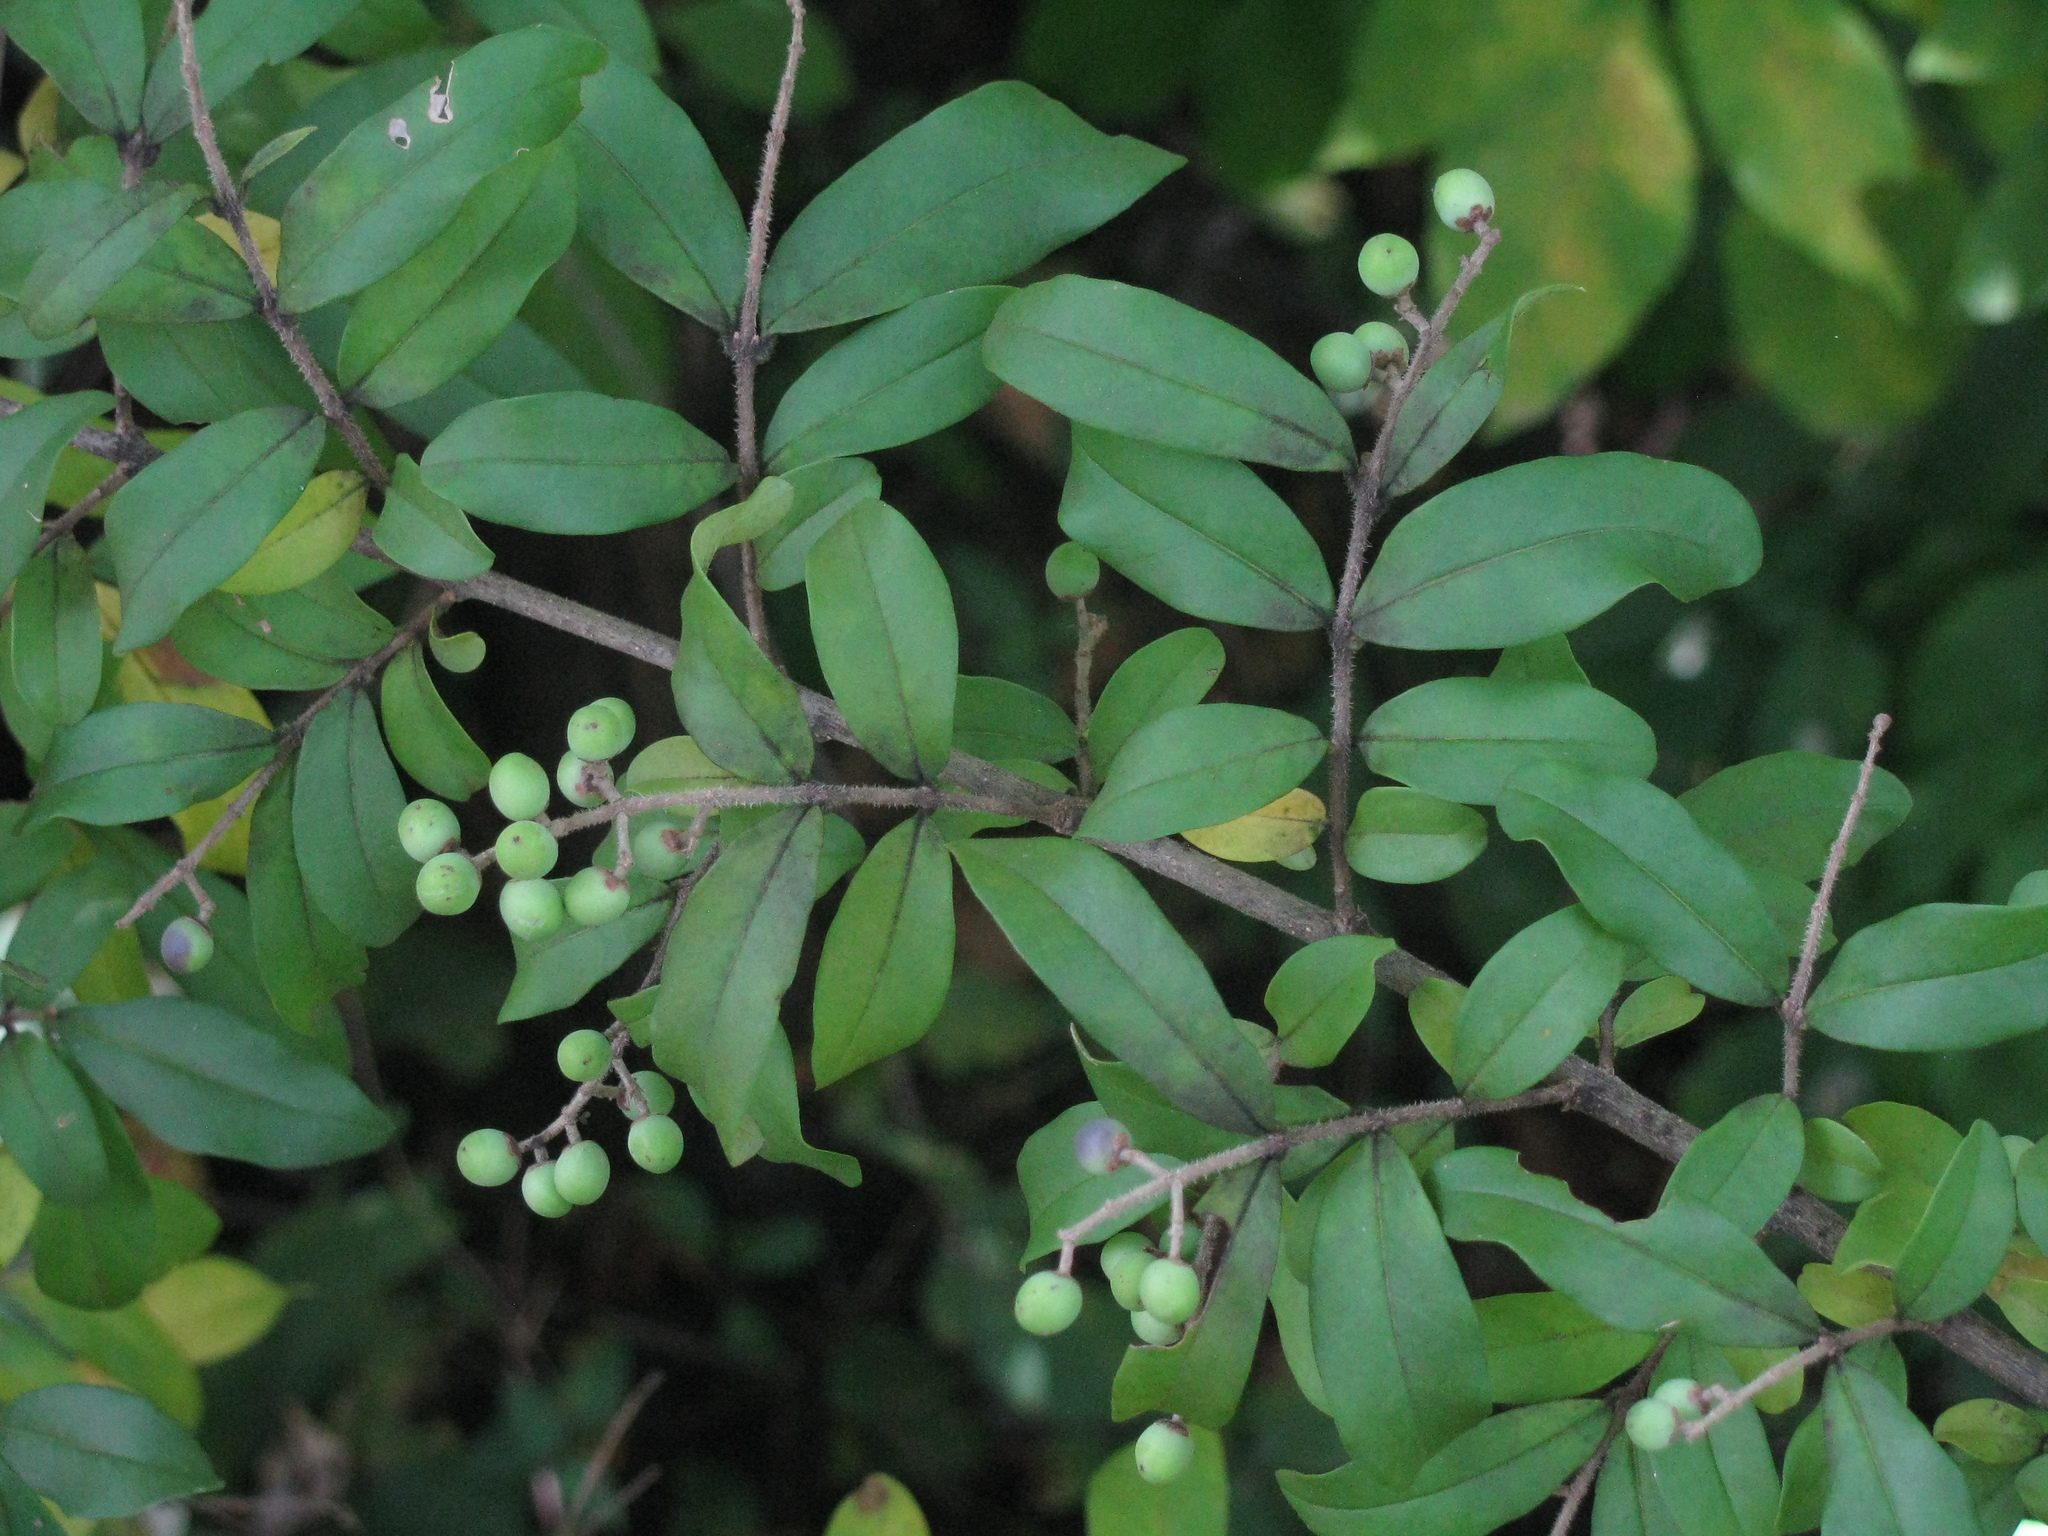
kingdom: Plantae
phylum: Tracheophyta
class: Magnoliopsida
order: Lamiales
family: Oleaceae
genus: Ligustrum
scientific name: Ligustrum obtusifolium
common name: Border privet
